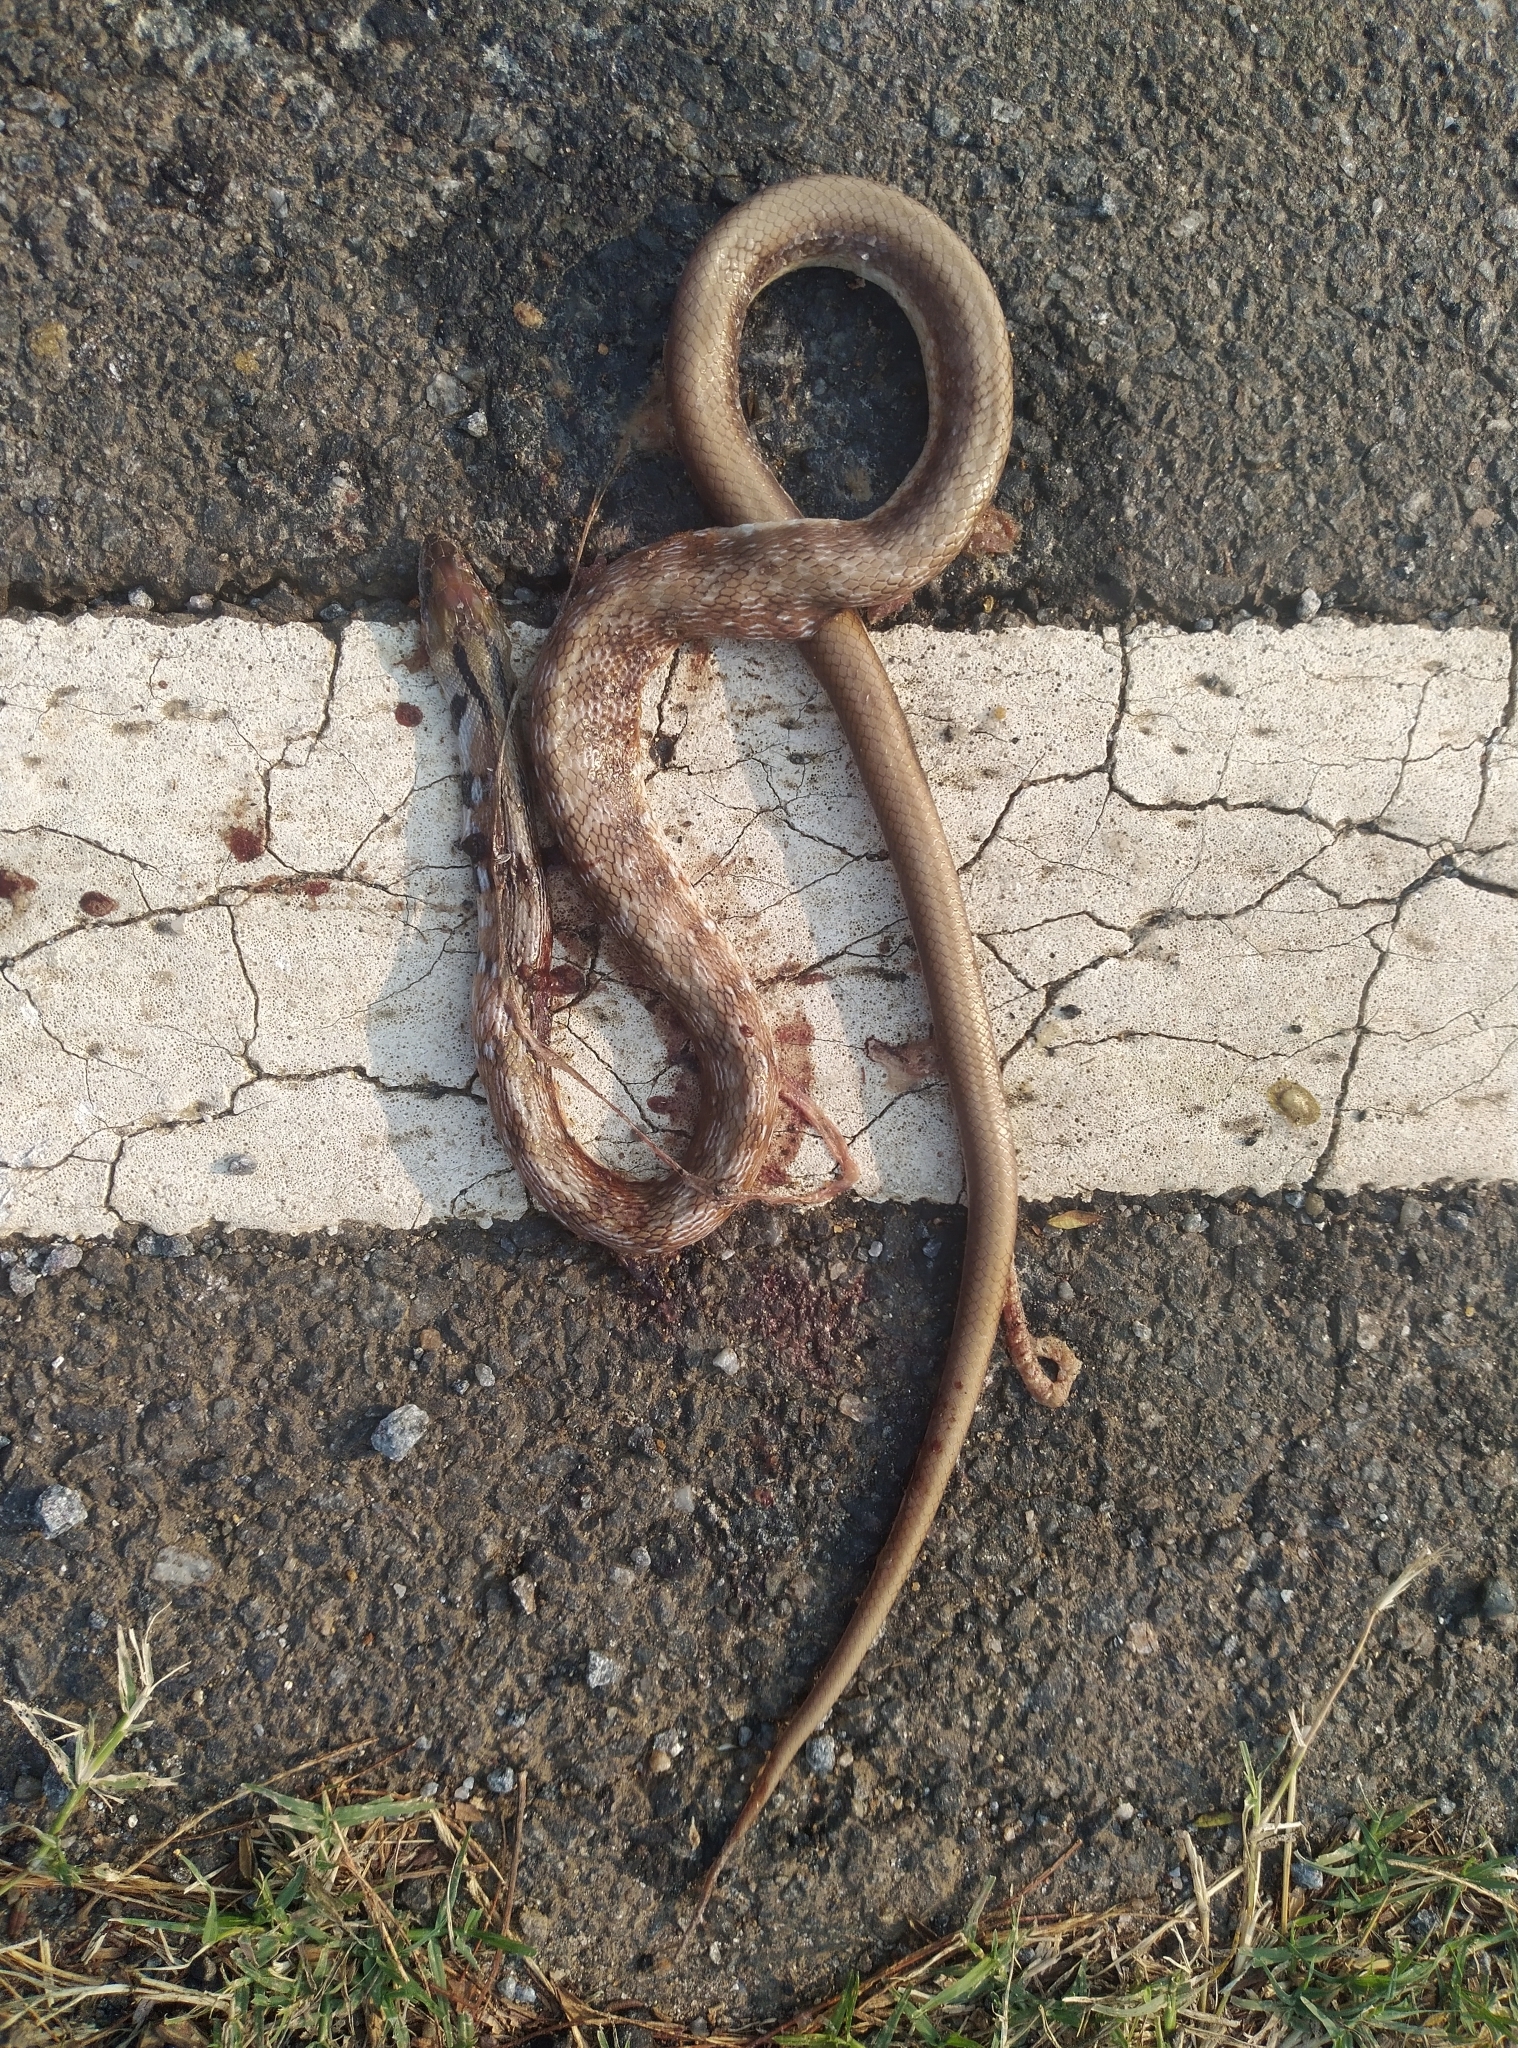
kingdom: Animalia
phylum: Chordata
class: Squamata
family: Colubridae
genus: Coelognathus
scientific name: Coelognathus helena
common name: Trinket snake
